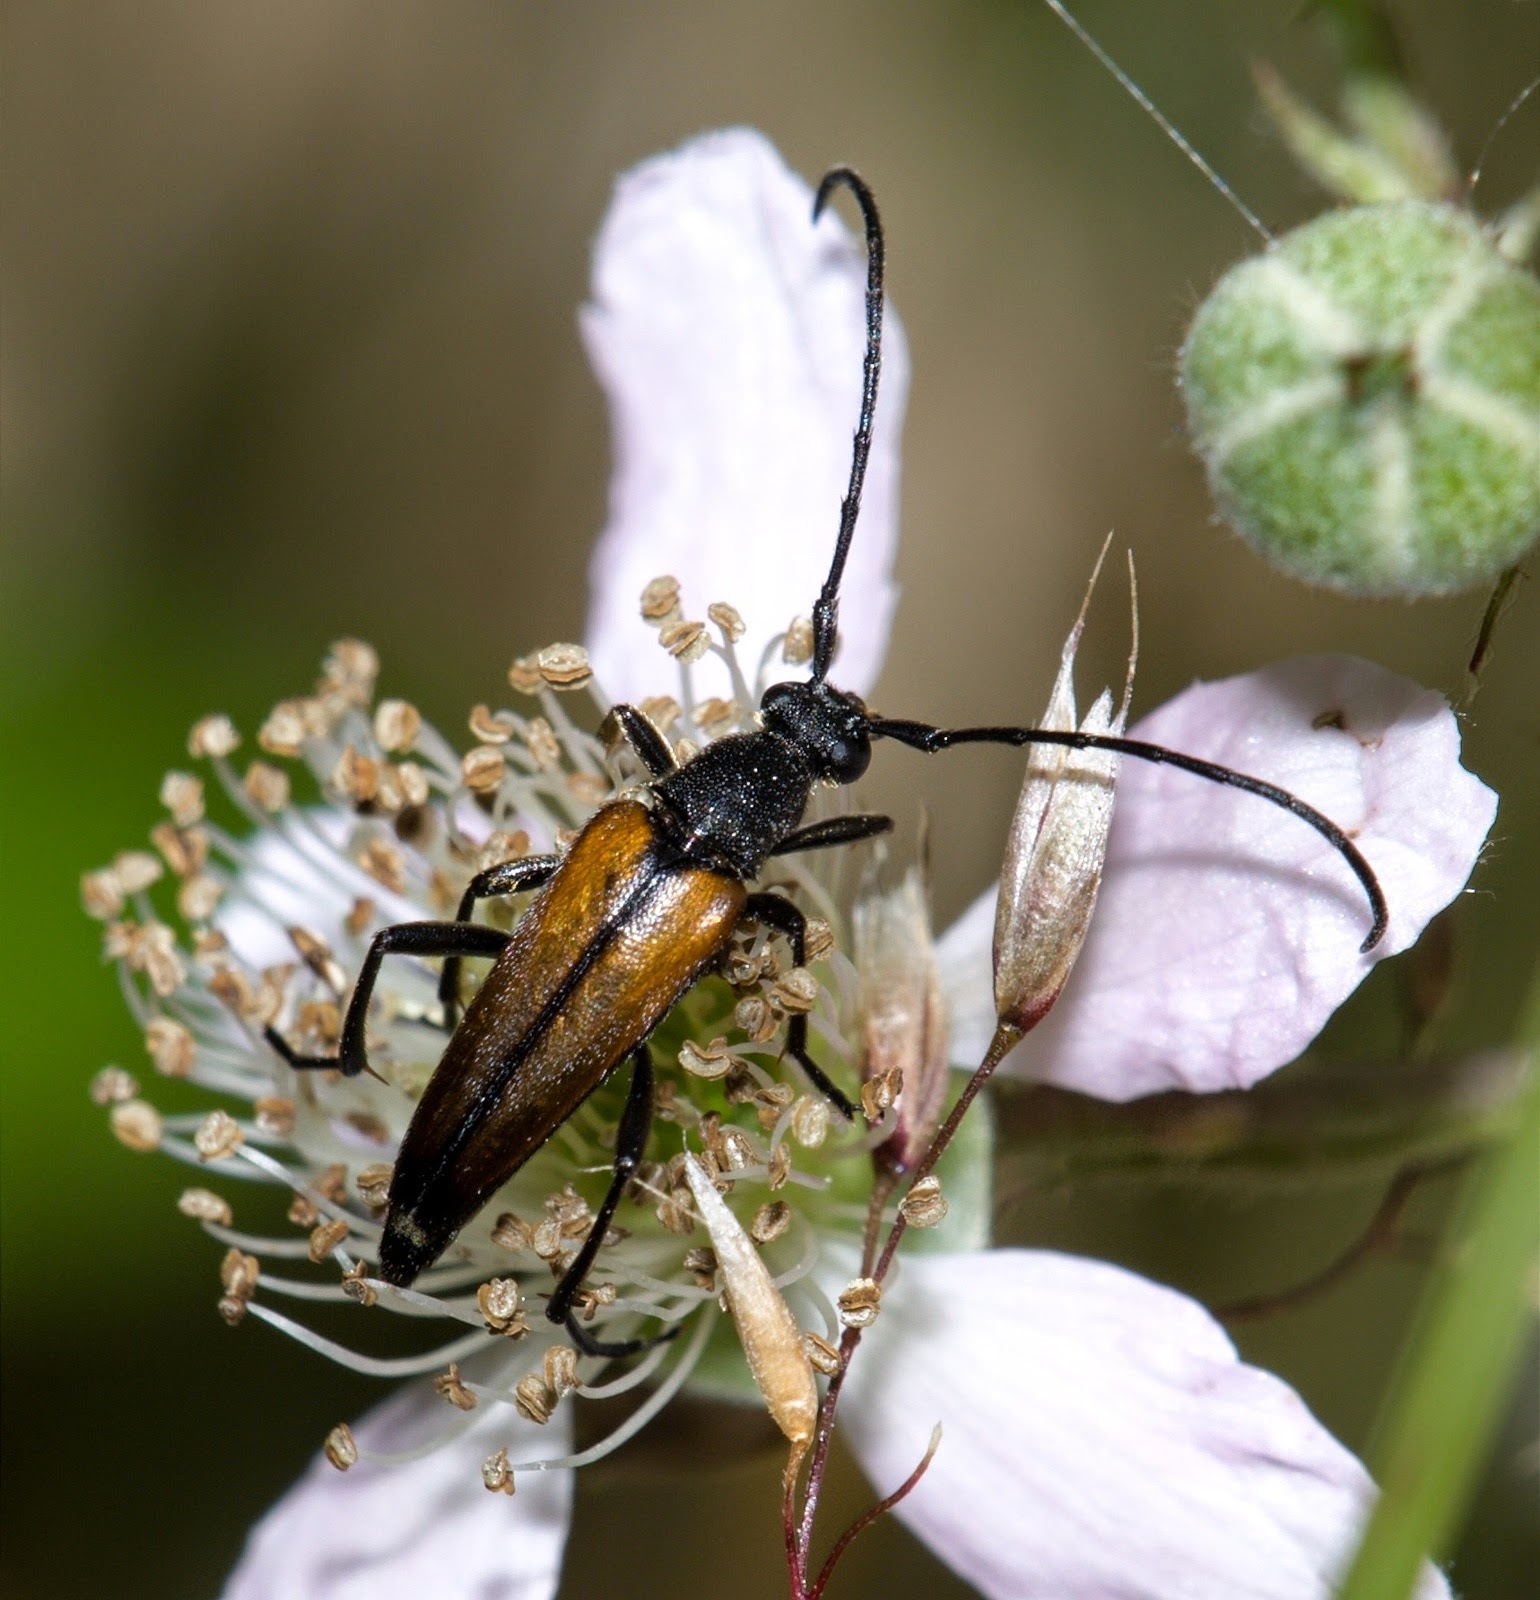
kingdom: Animalia
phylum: Arthropoda
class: Insecta
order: Coleoptera
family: Cerambycidae
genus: Stenurella
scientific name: Stenurella melanura
